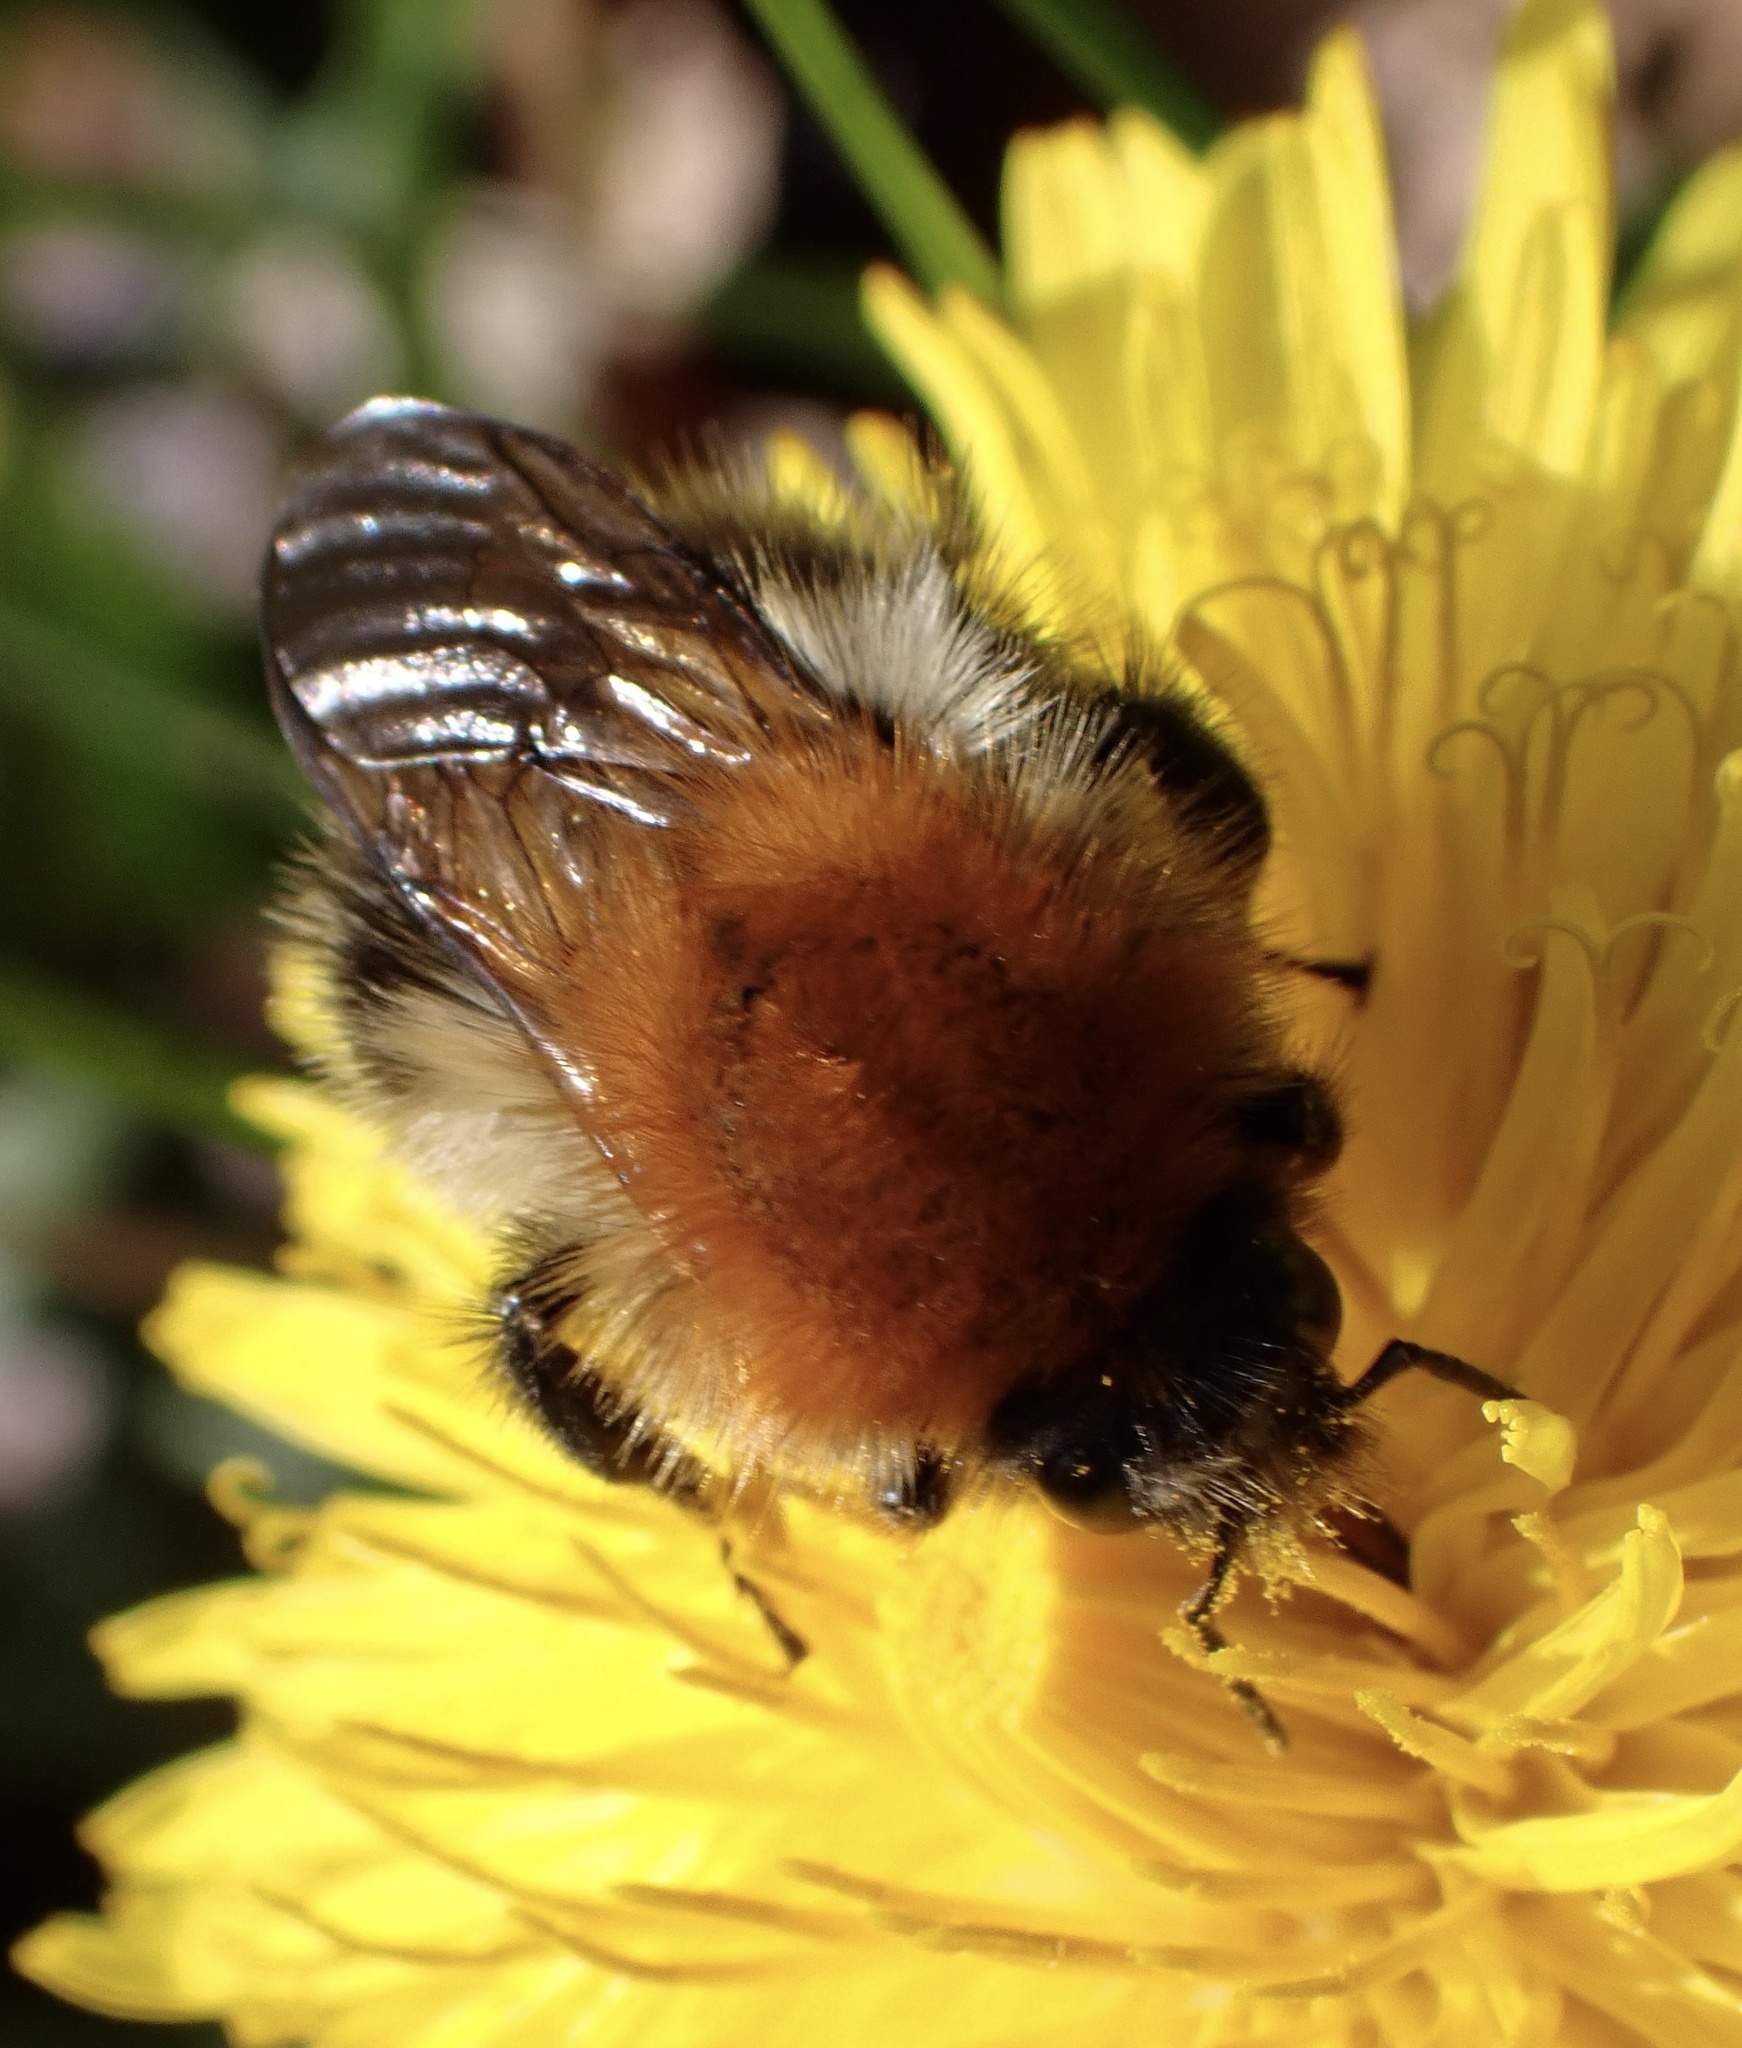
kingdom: Animalia
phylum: Arthropoda
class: Insecta
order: Hymenoptera
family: Apidae
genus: Bombus
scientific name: Bombus pascuorum
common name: Common carder bee
